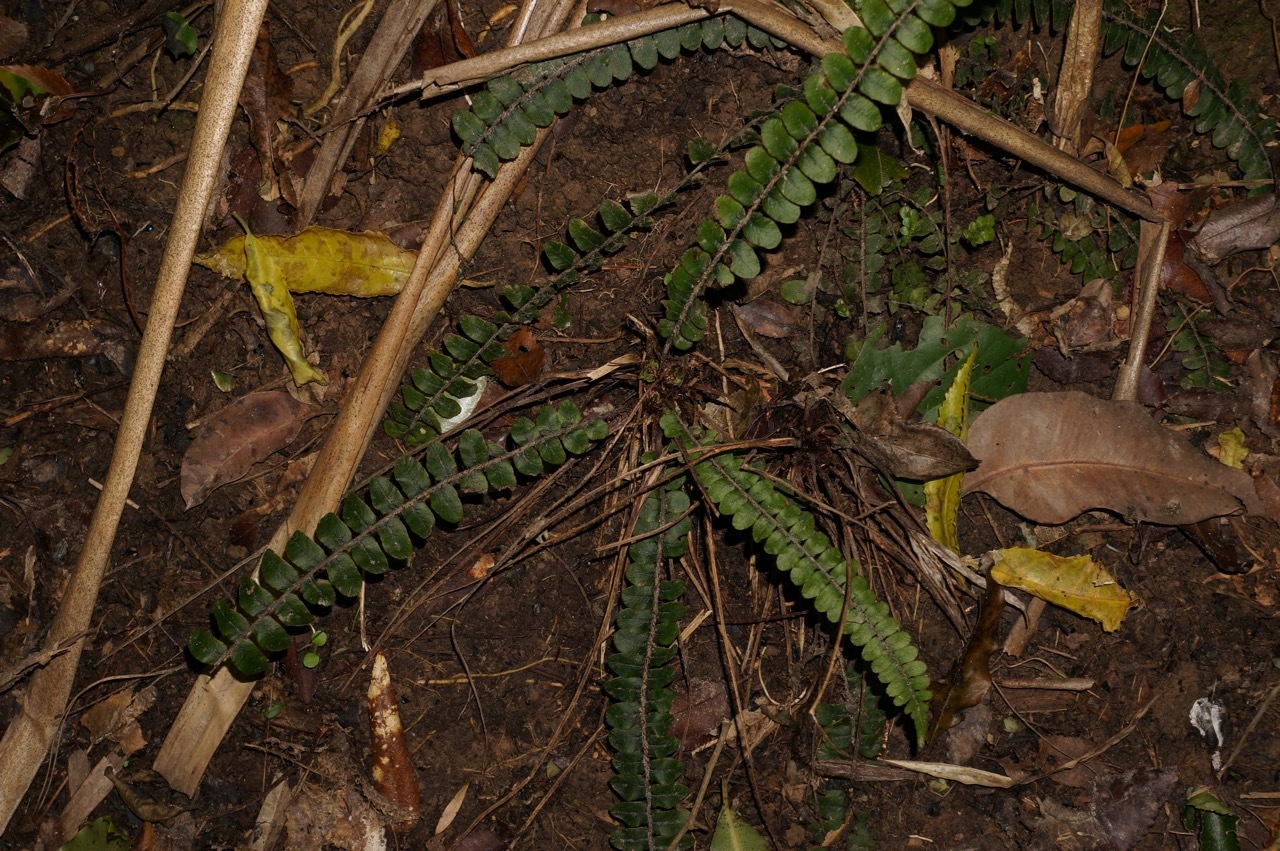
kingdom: Plantae
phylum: Tracheophyta
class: Polypodiopsida
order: Polypodiales
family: Blechnaceae
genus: Cranfillia
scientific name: Cranfillia fluviatilis
